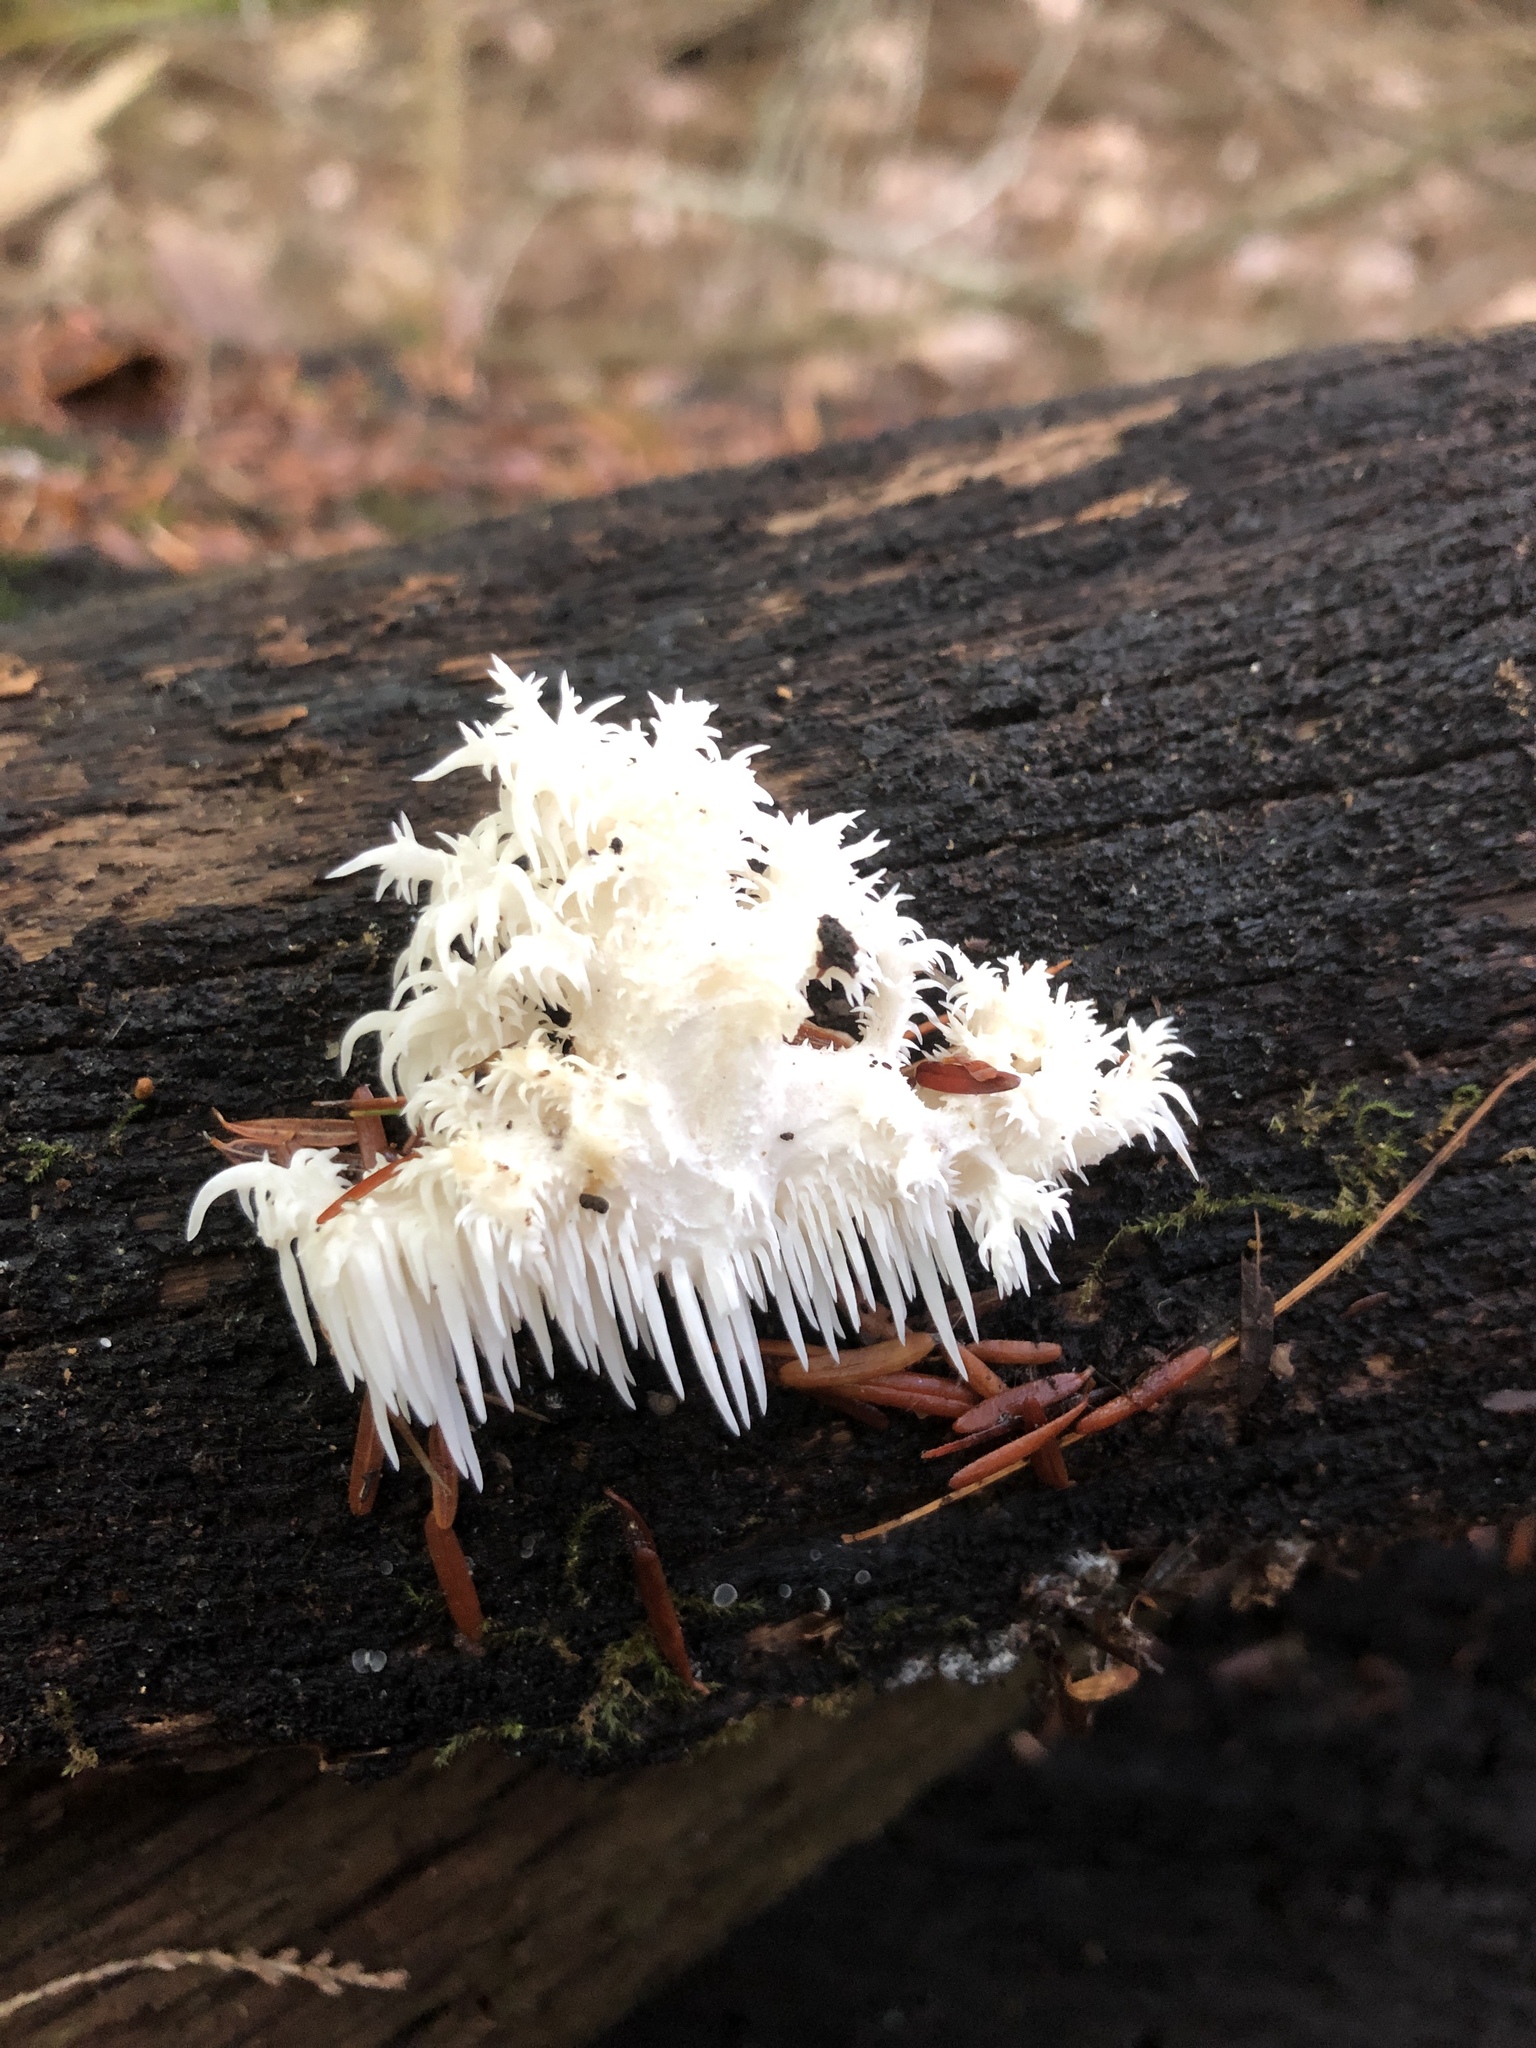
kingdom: Fungi
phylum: Basidiomycota
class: Agaricomycetes
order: Russulales
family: Hericiaceae
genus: Hericium
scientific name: Hericium coralloides
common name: Coral tooth
